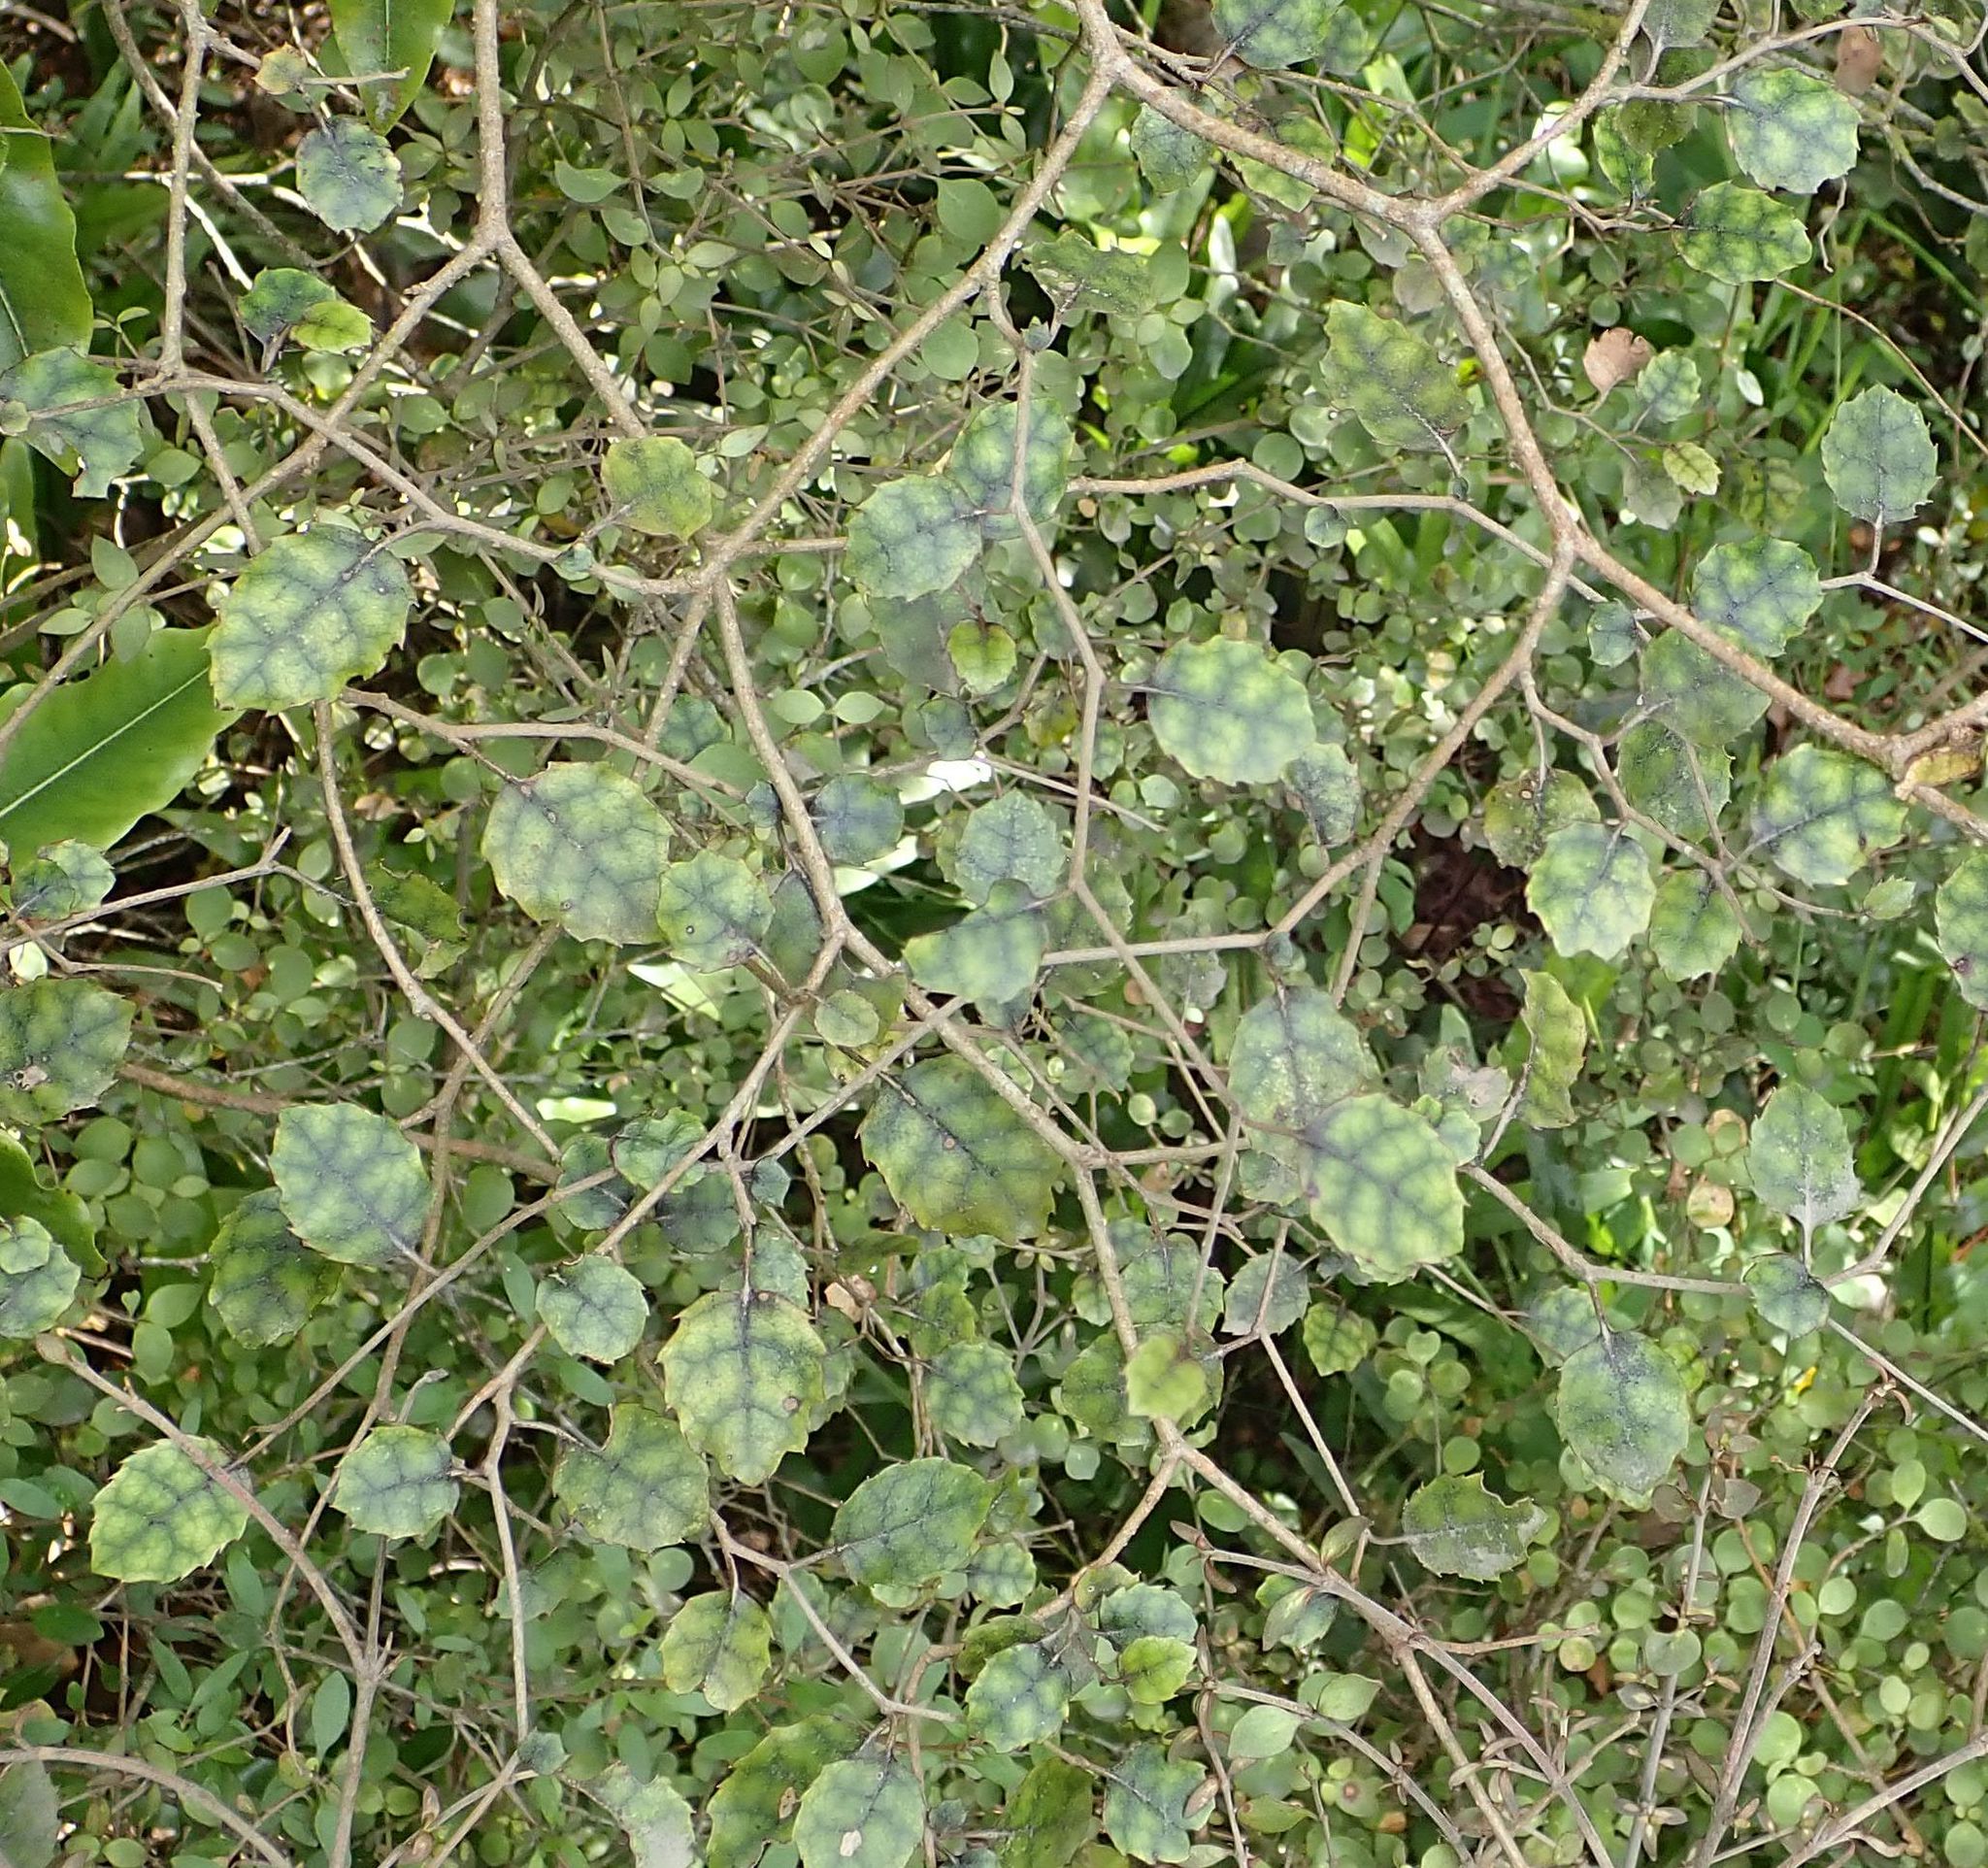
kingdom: Plantae
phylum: Tracheophyta
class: Magnoliopsida
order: Asterales
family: Rousseaceae
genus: Carpodetus
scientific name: Carpodetus serratus
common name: White mapau
